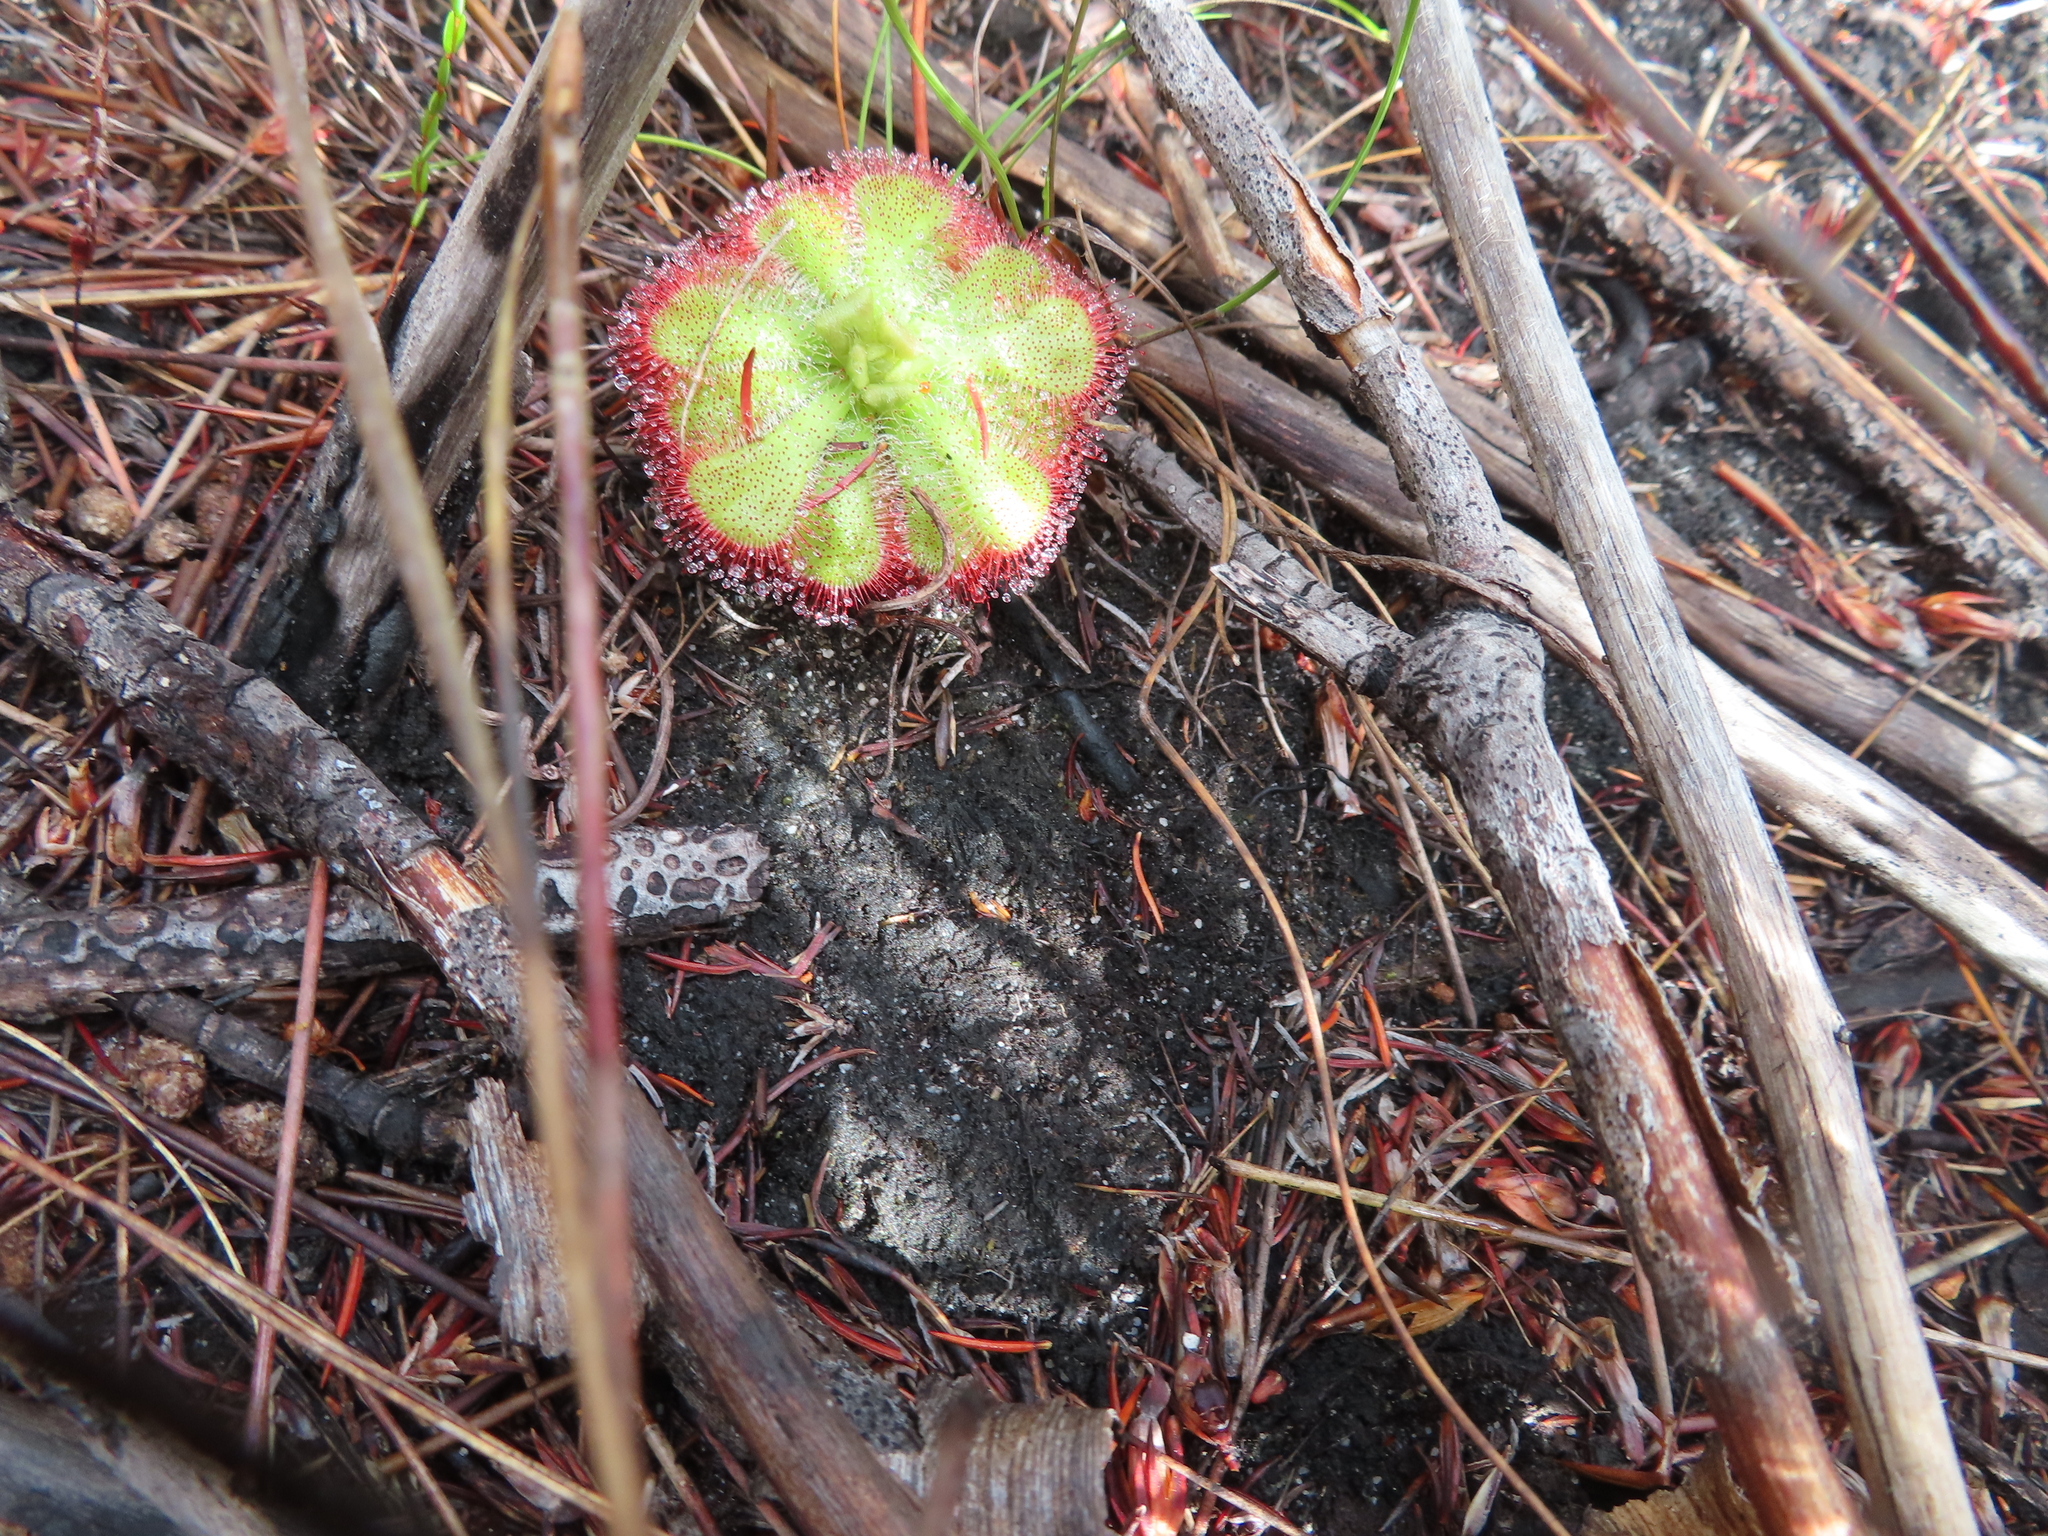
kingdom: Plantae
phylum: Tracheophyta
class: Magnoliopsida
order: Caryophyllales
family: Droseraceae
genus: Drosera
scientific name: Drosera aliciae
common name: Alice sundew
